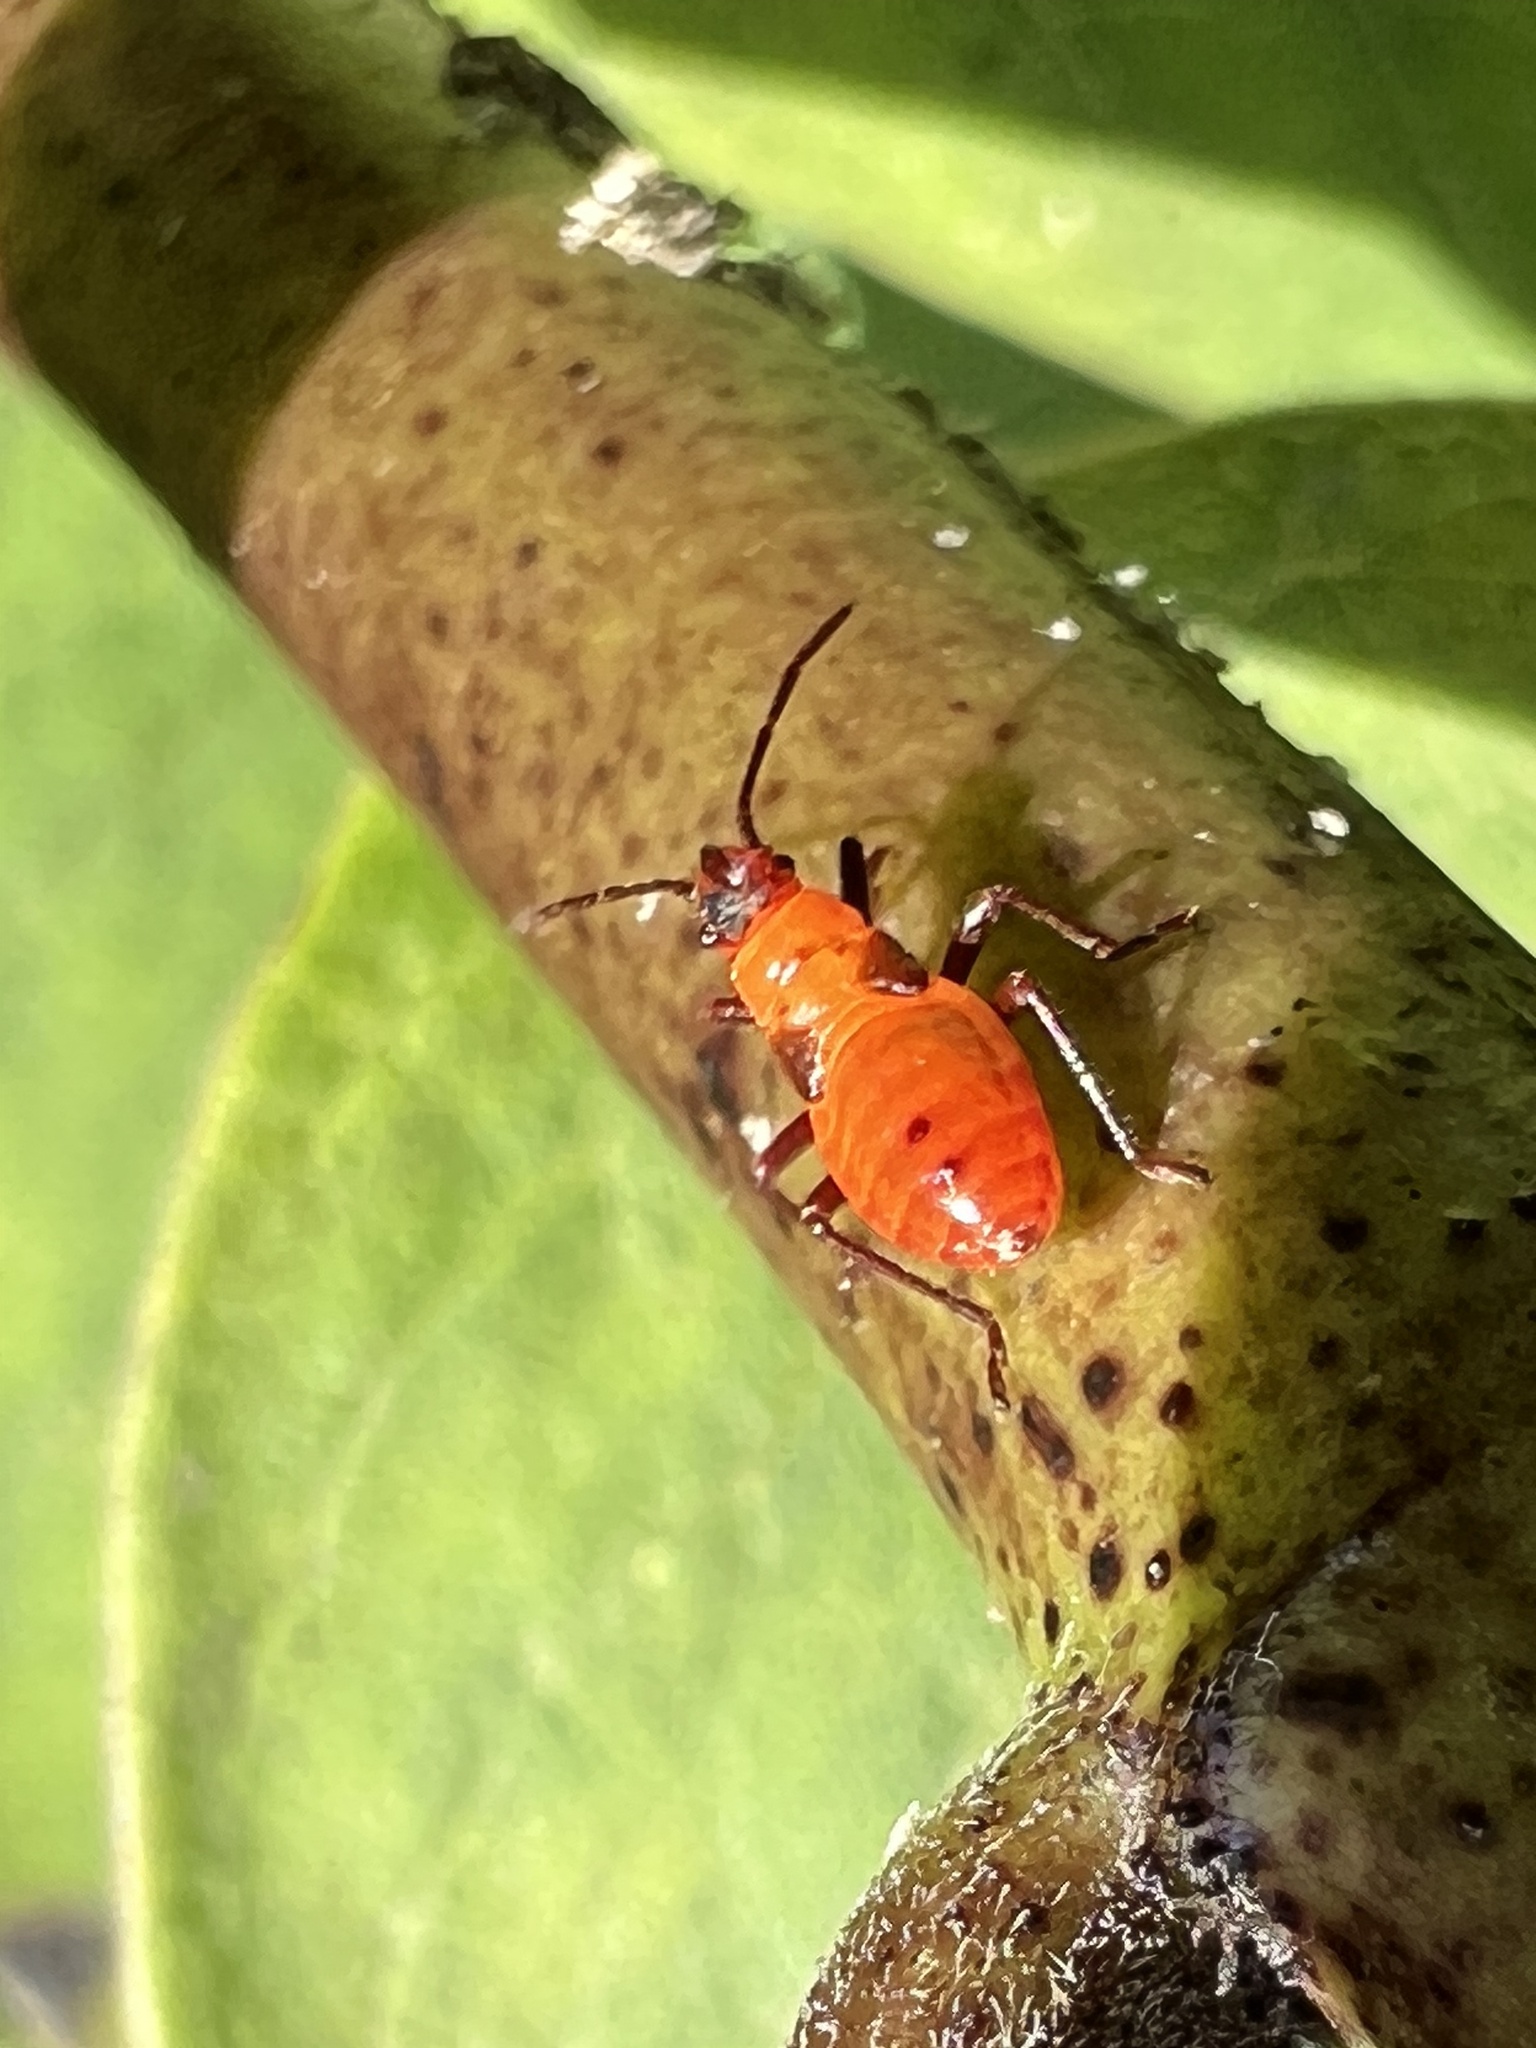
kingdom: Animalia
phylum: Arthropoda
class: Insecta
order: Hemiptera
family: Lygaeidae
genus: Oncopeltus
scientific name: Oncopeltus fasciatus
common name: Large milkweed bug
